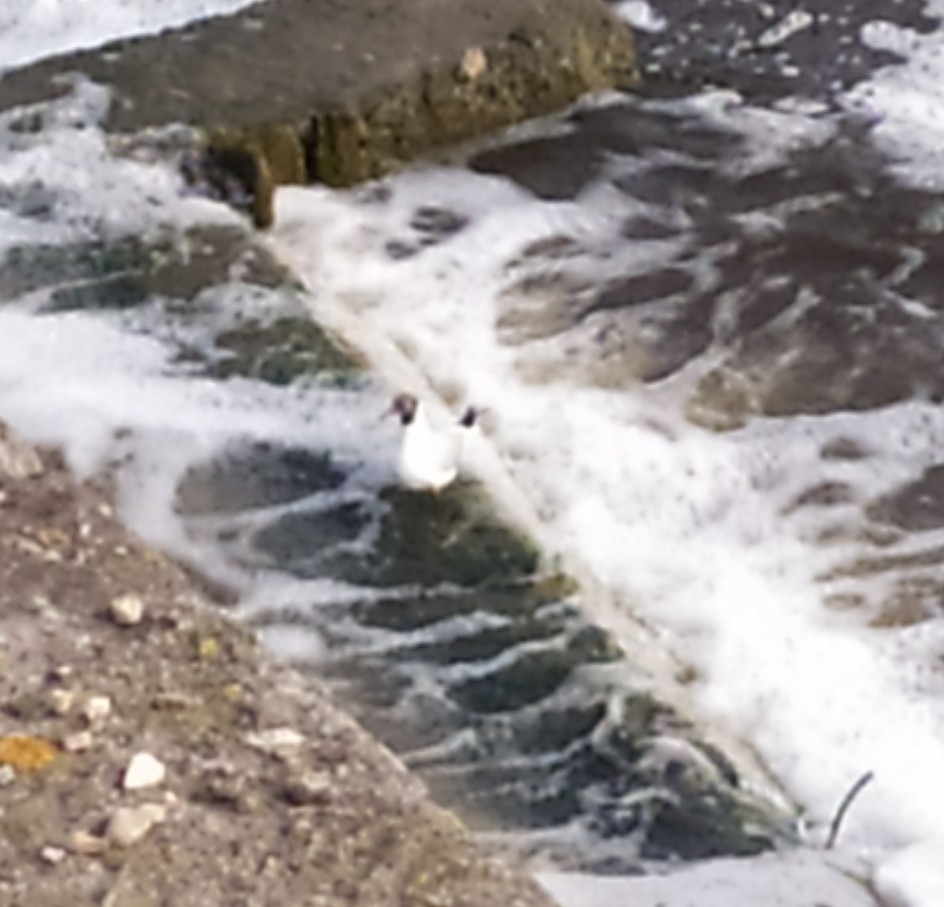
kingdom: Animalia
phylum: Chordata
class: Aves
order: Charadriiformes
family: Laridae
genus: Chroicocephalus
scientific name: Chroicocephalus ridibundus
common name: Black-headed gull
